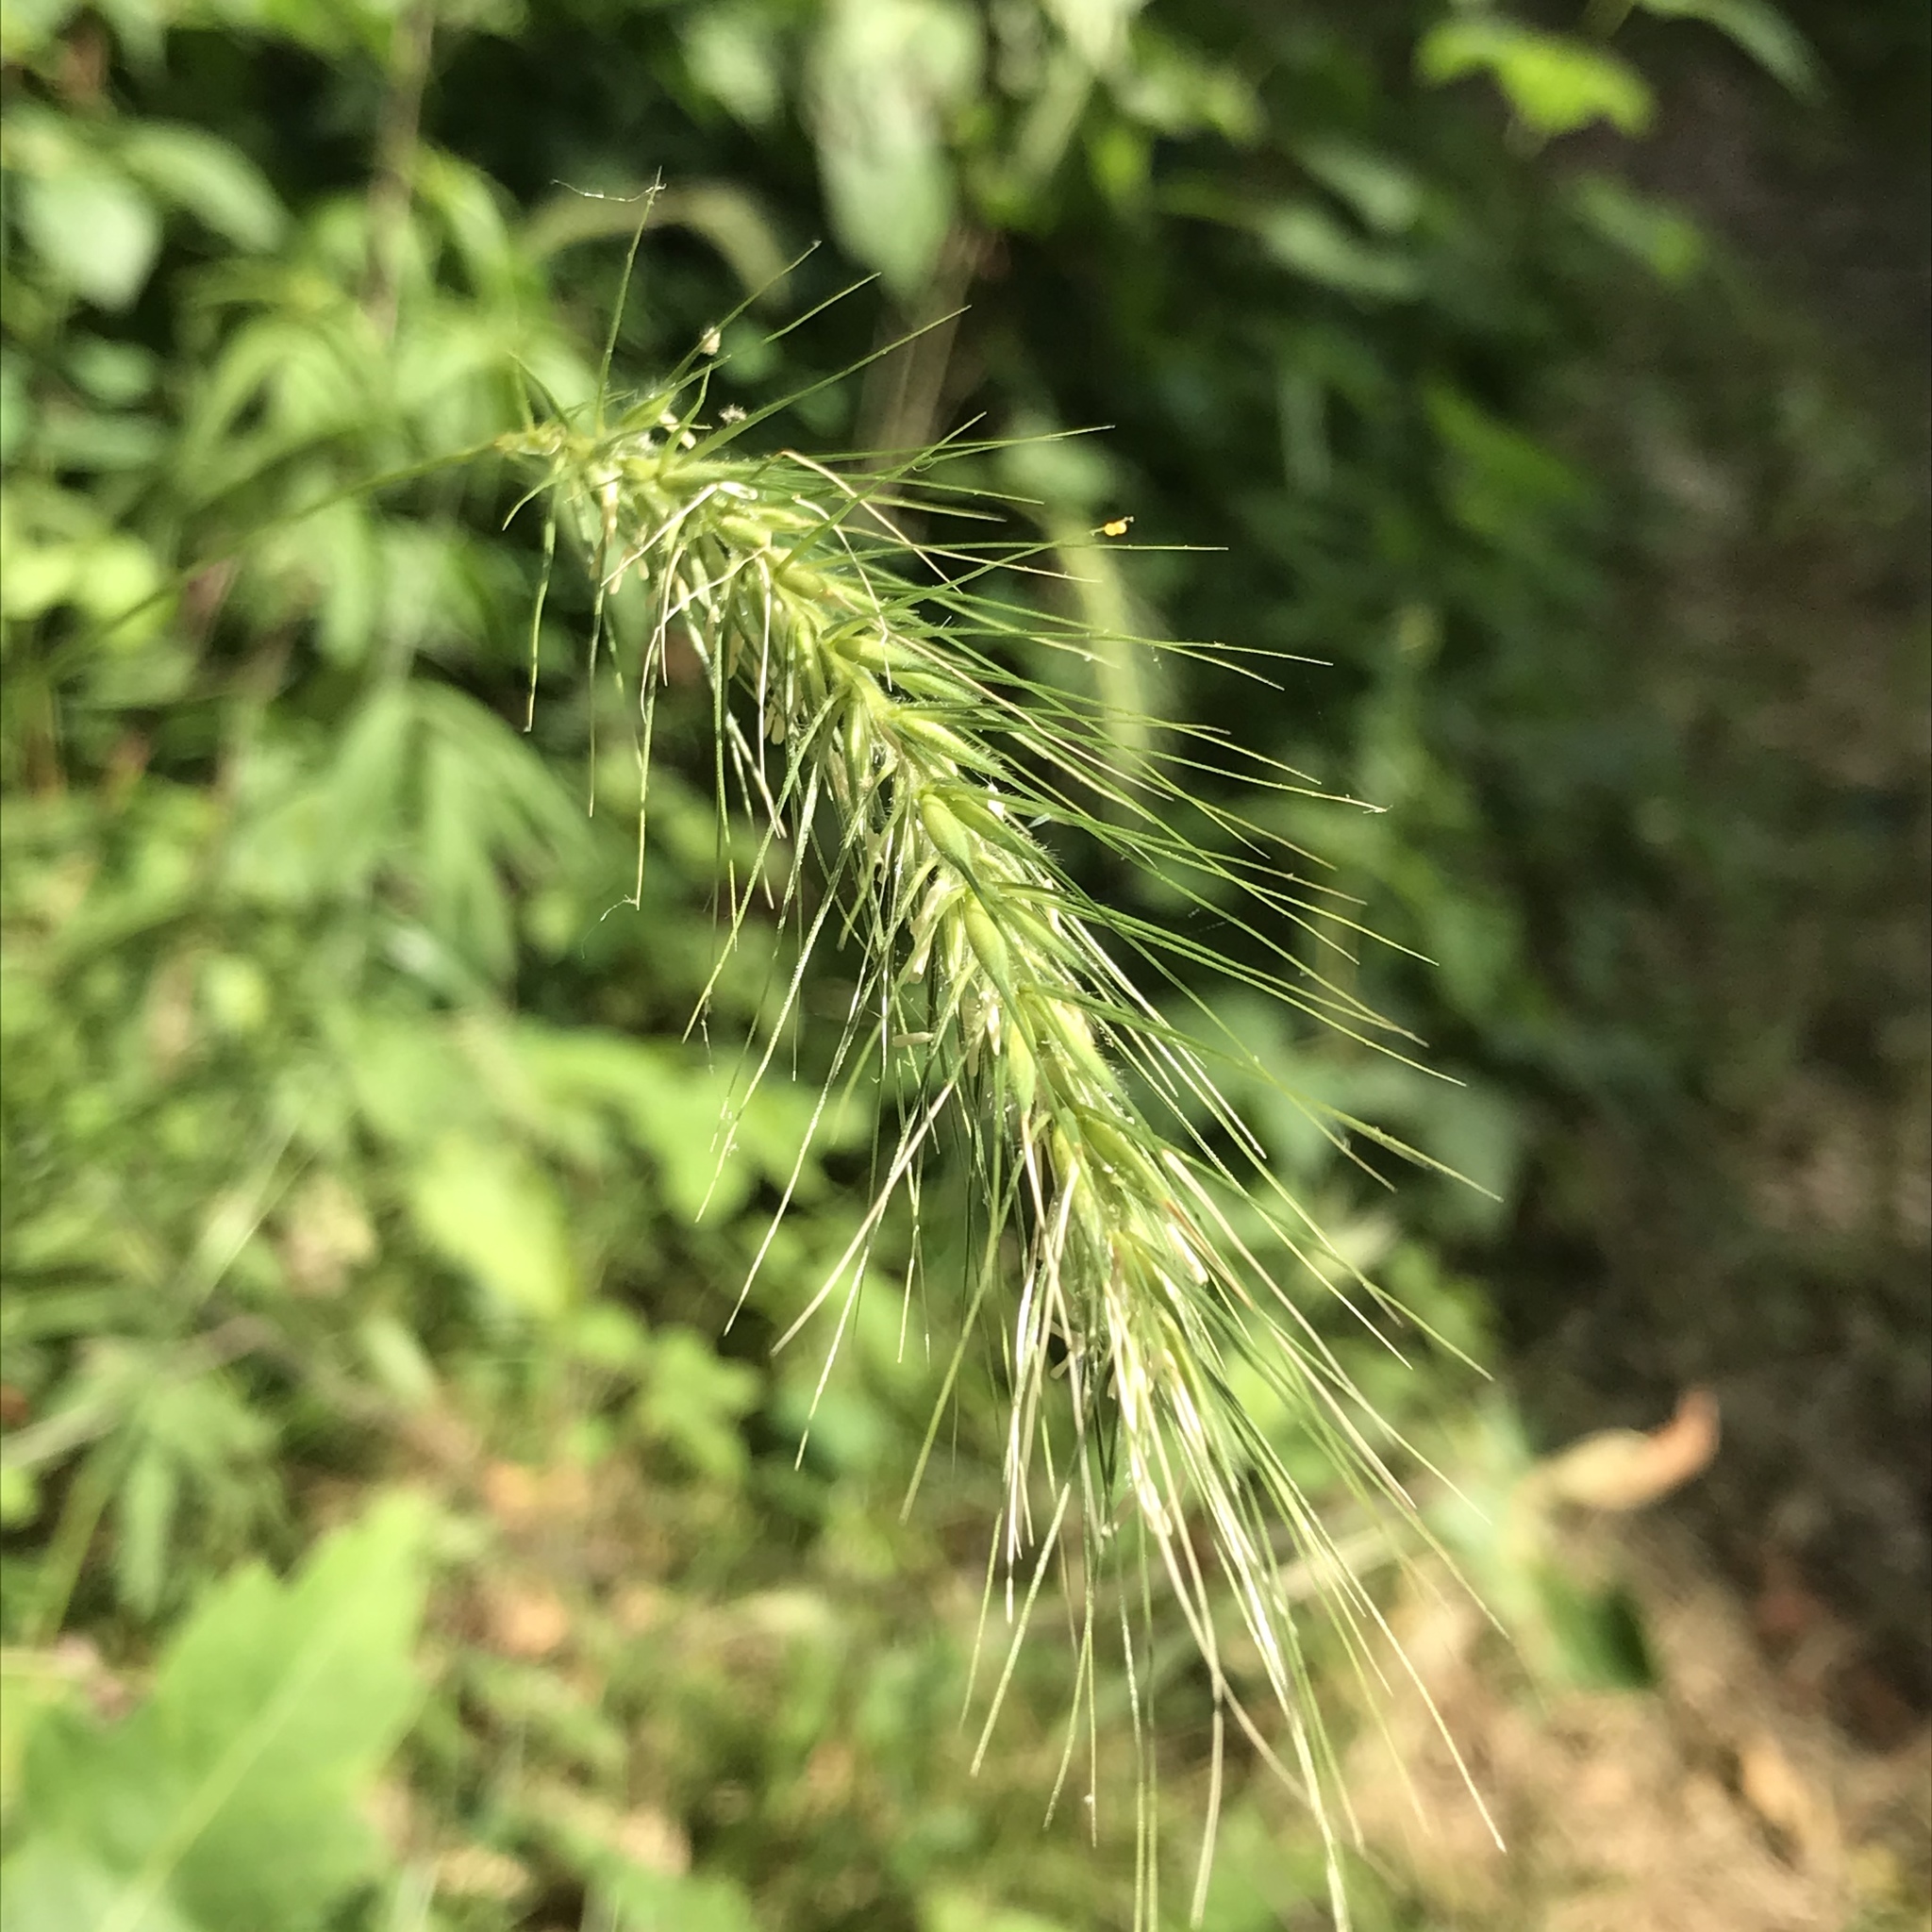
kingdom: Plantae
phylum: Tracheophyta
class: Liliopsida
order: Poales
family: Poaceae
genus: Elymus
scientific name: Elymus villosus
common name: Downy wild rye
